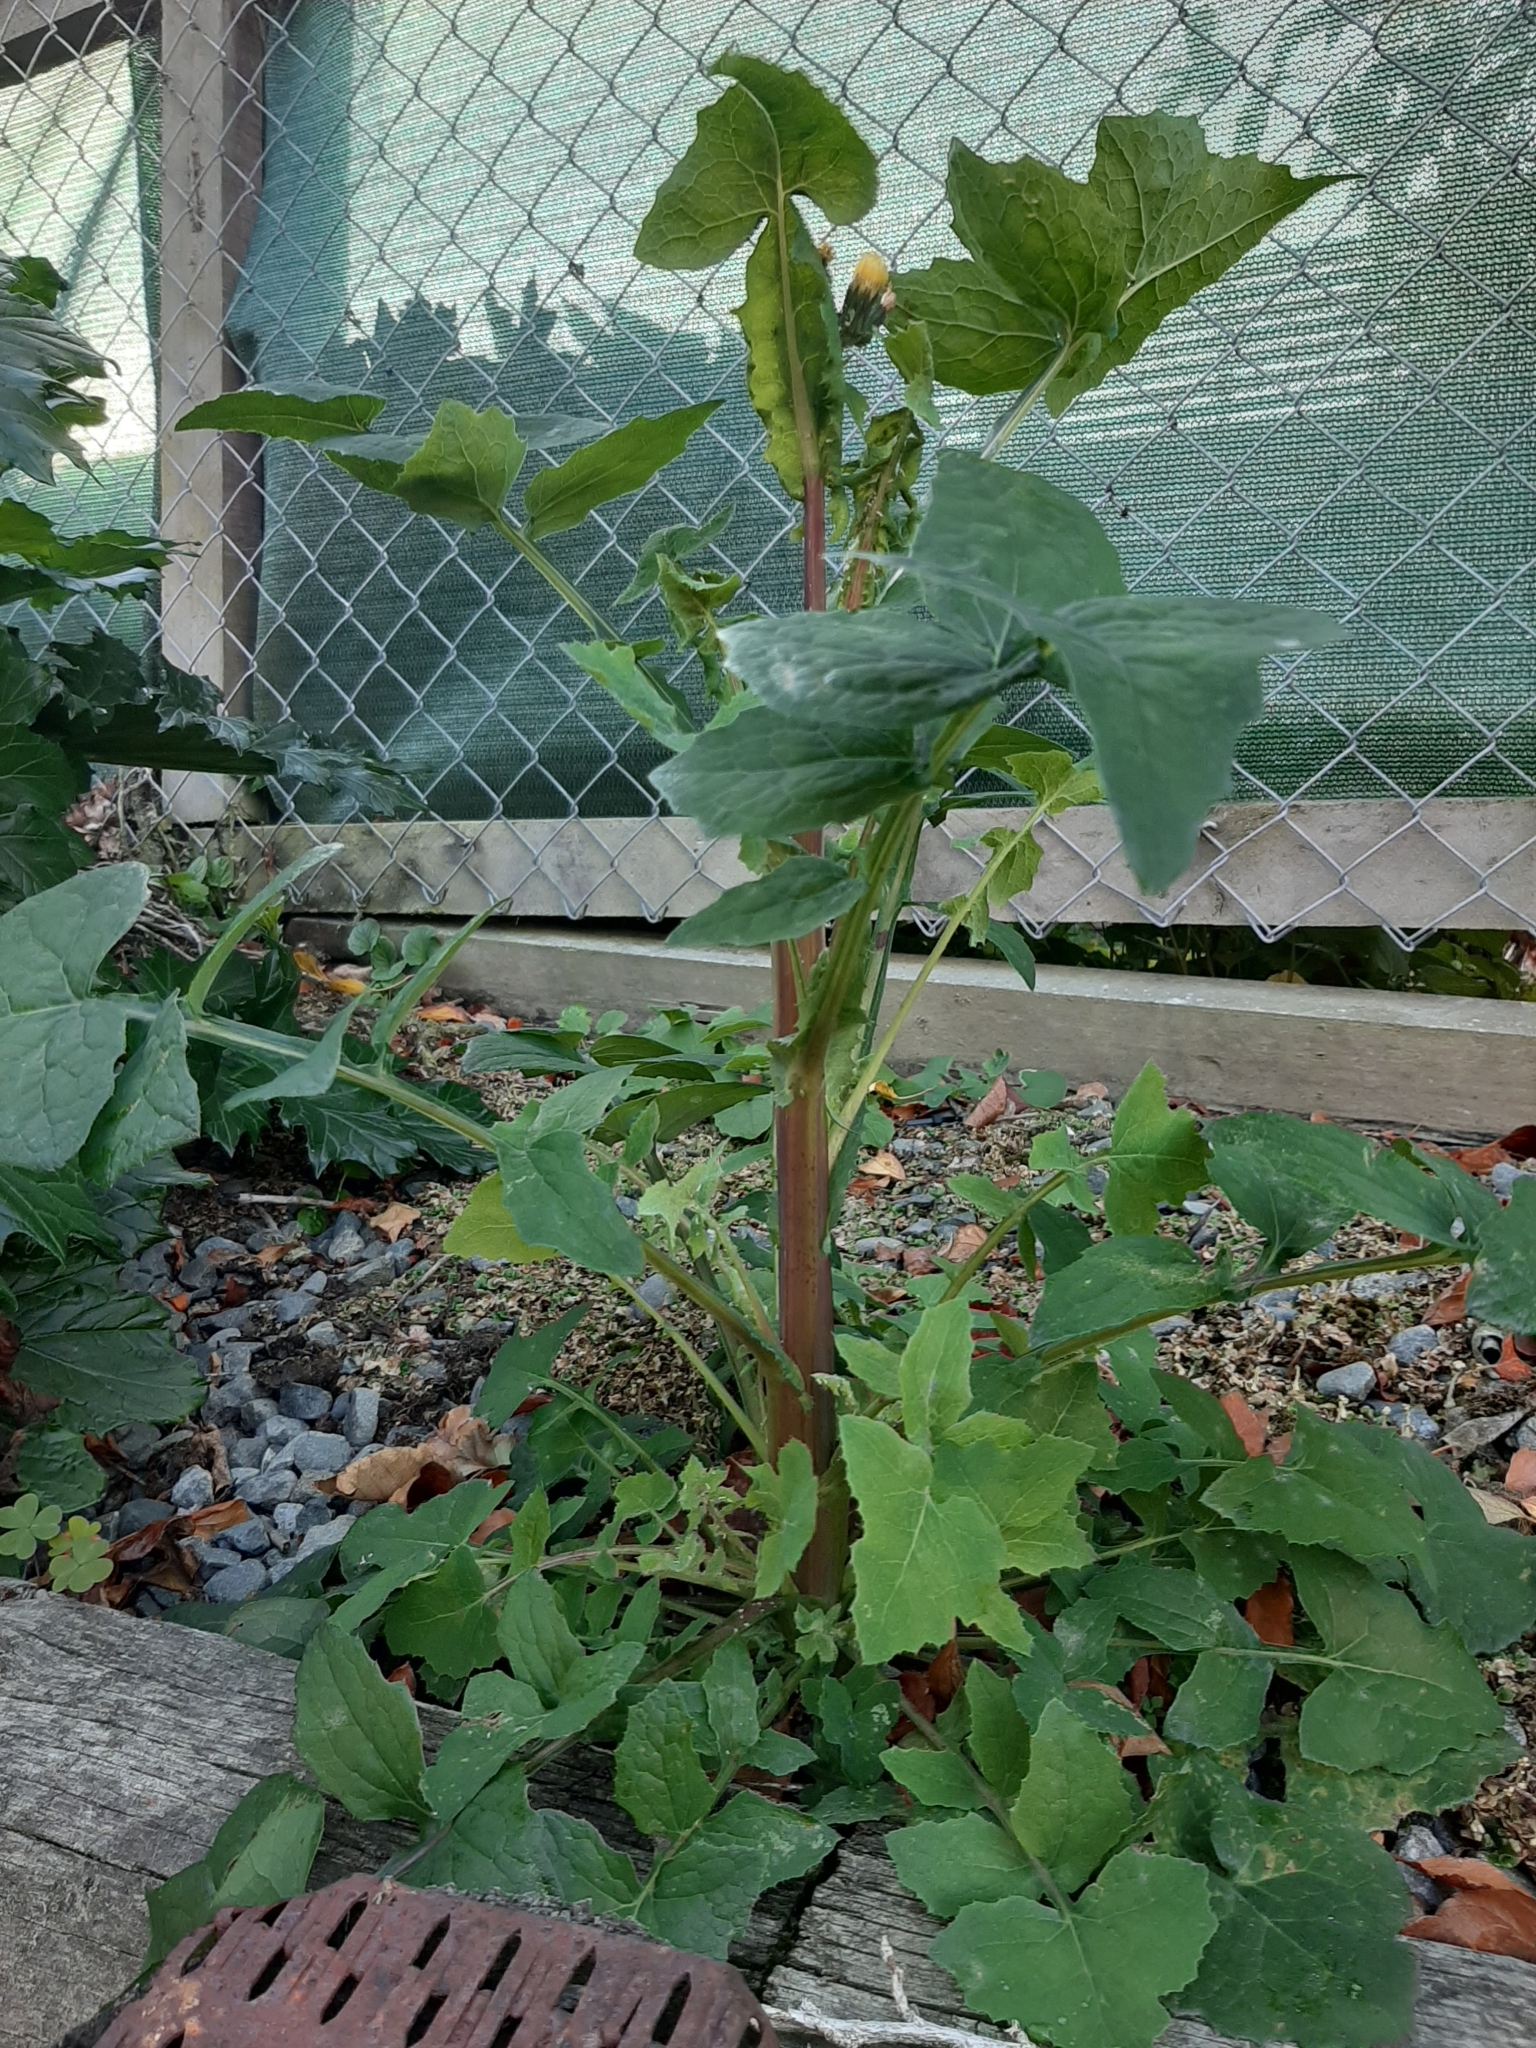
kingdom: Plantae
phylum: Tracheophyta
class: Magnoliopsida
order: Asterales
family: Asteraceae
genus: Sonchus
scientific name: Sonchus oleraceus
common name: Common sowthistle
